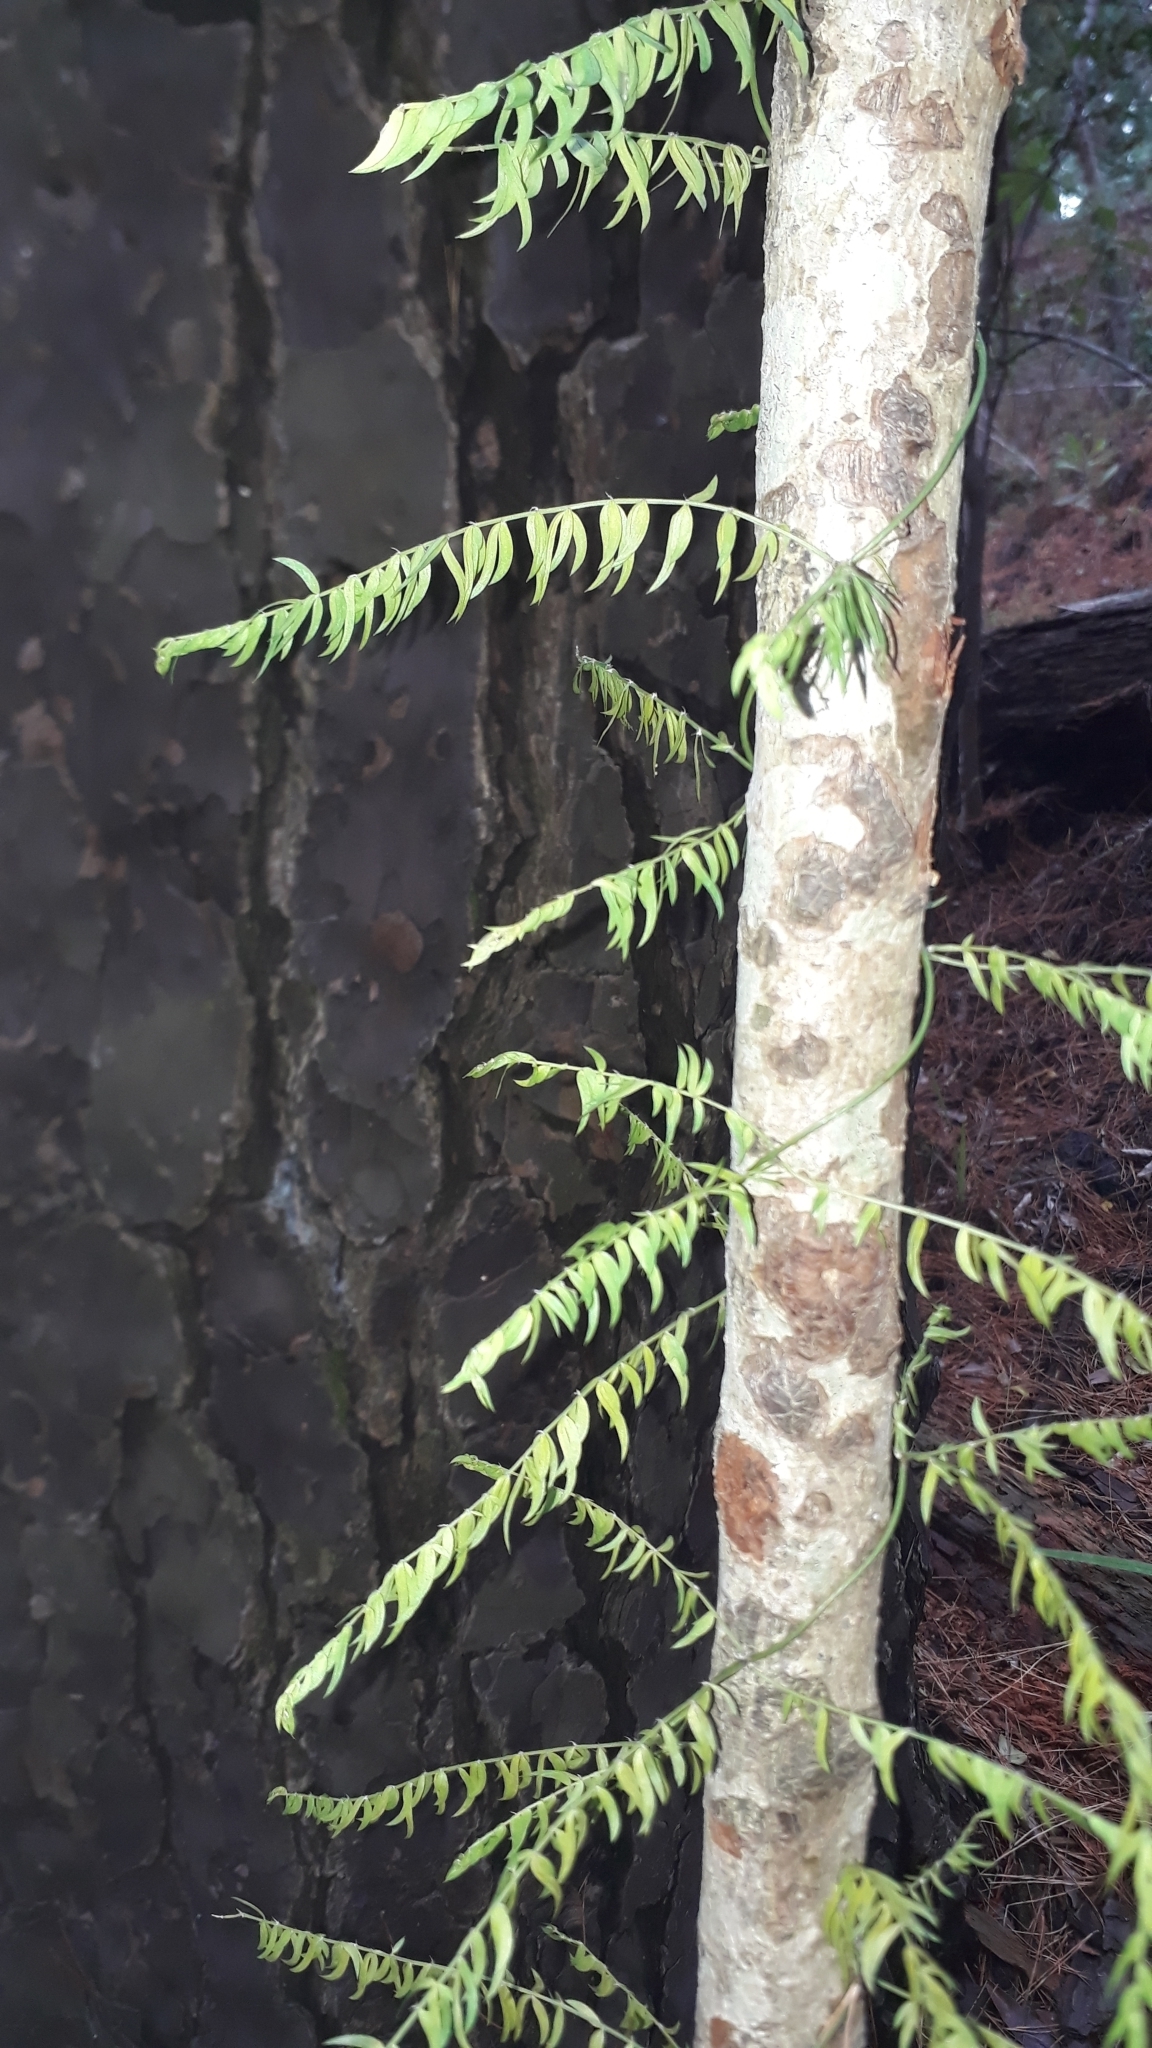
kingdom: Plantae
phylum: Tracheophyta
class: Liliopsida
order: Asparagales
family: Asparagaceae
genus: Asparagus
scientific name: Asparagus scandens
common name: Asparagus-fern
